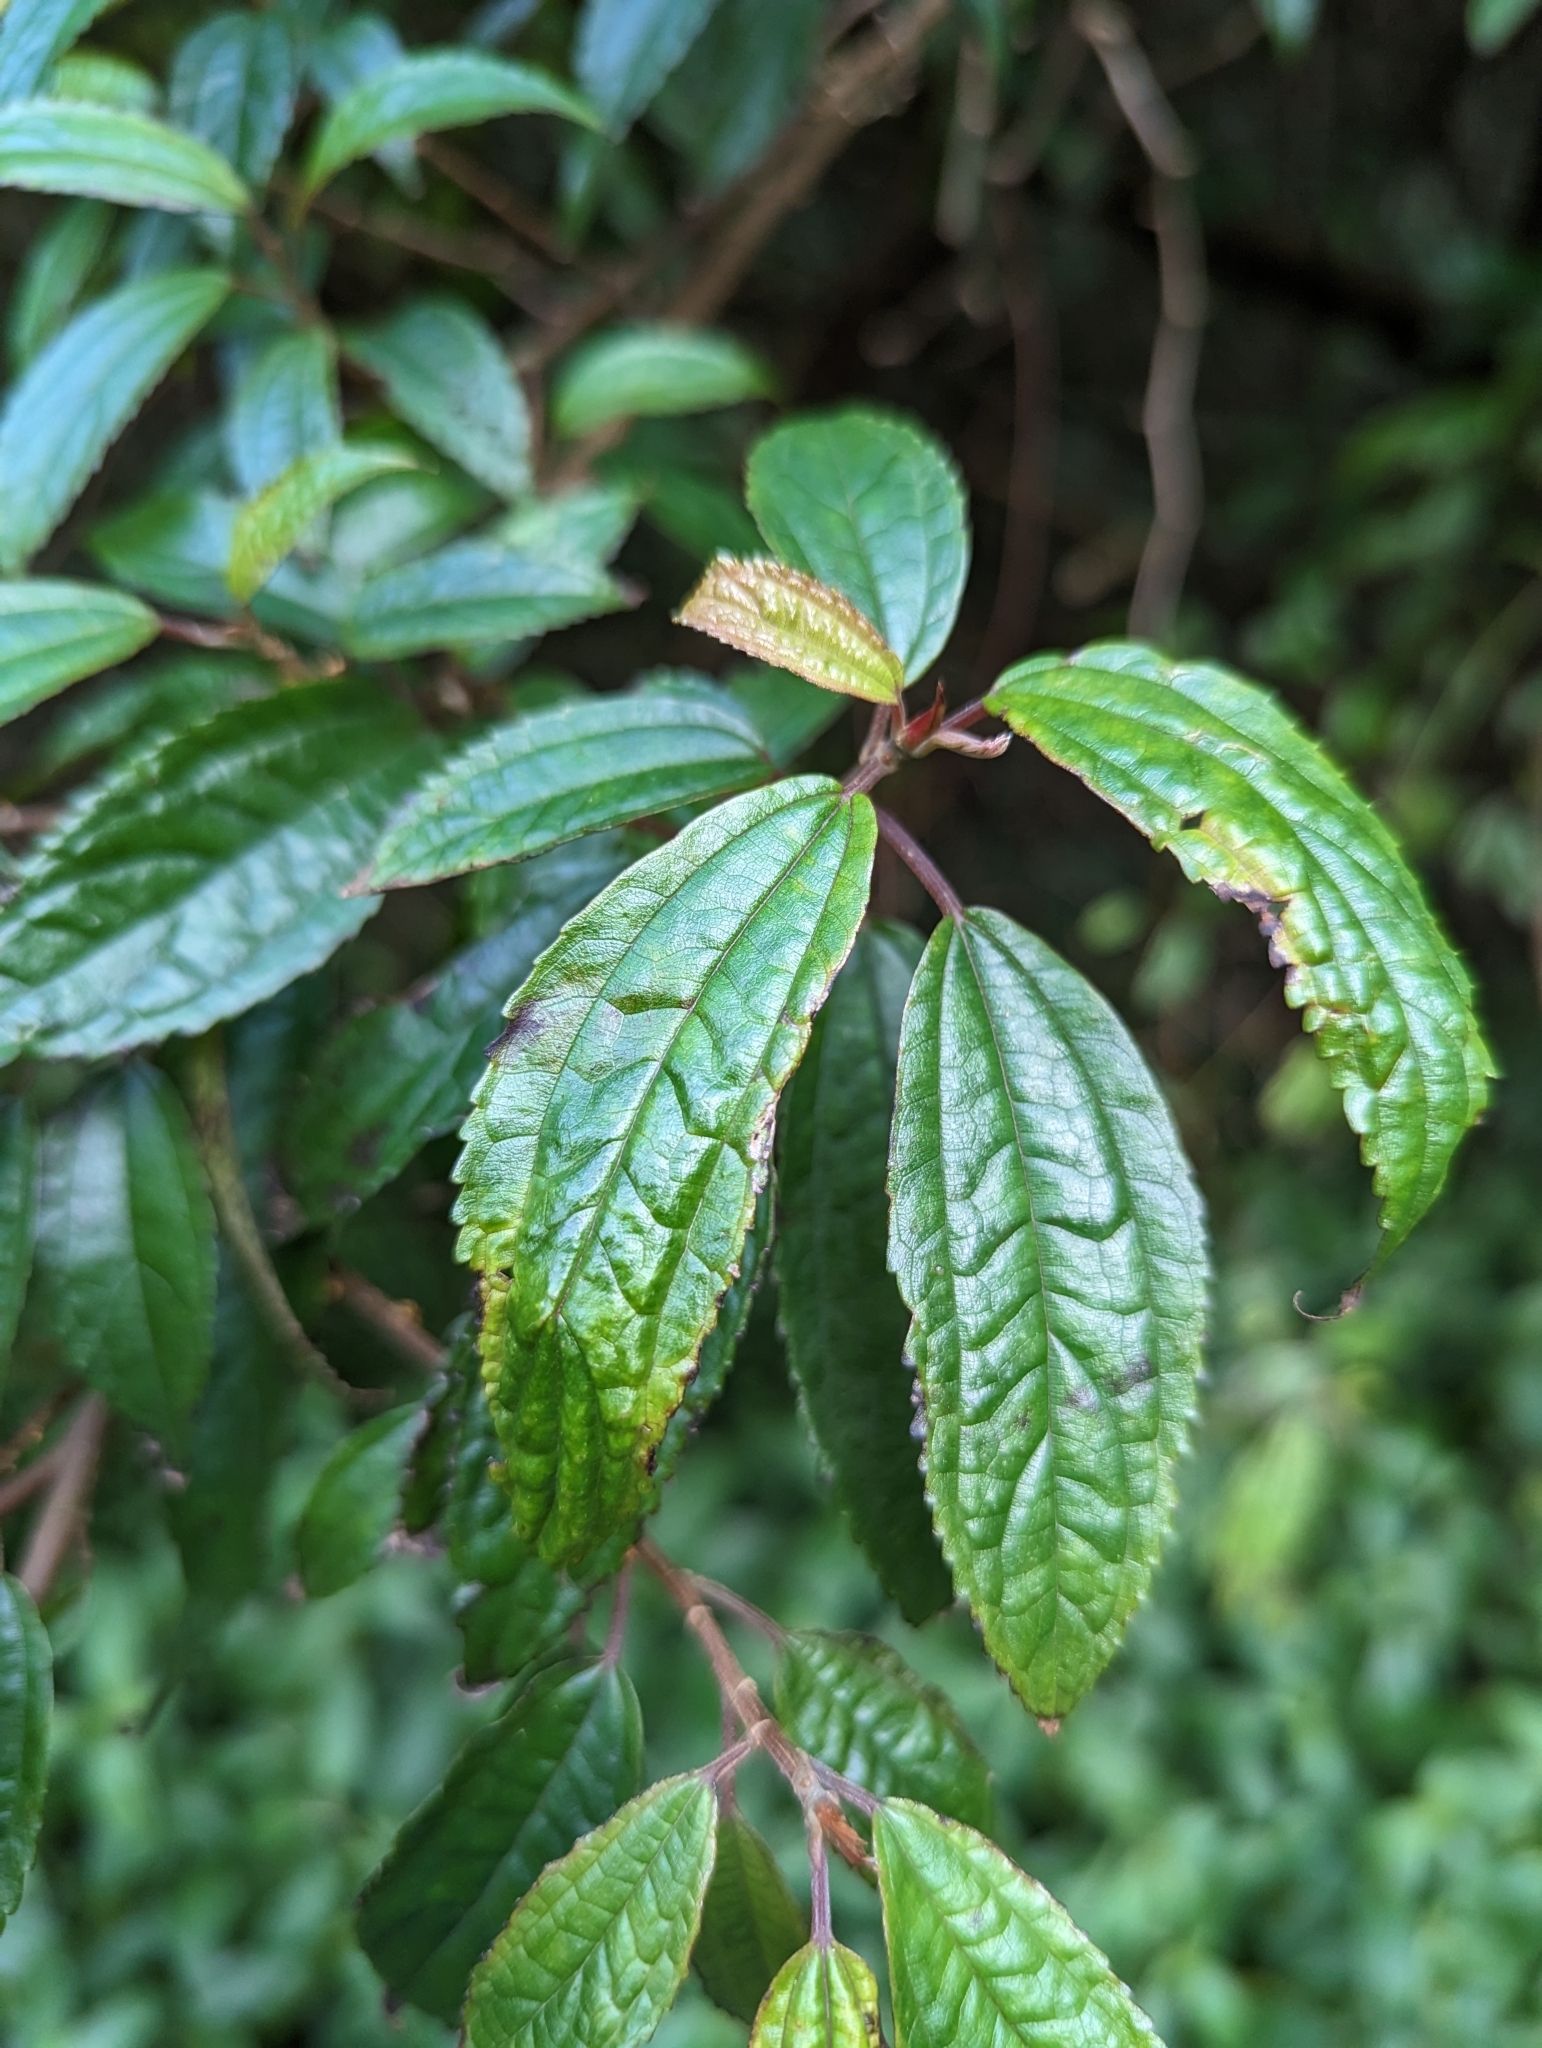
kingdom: Plantae
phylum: Tracheophyta
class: Magnoliopsida
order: Rosales
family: Urticaceae
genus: Oreocnide
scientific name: Oreocnide pedunculata
